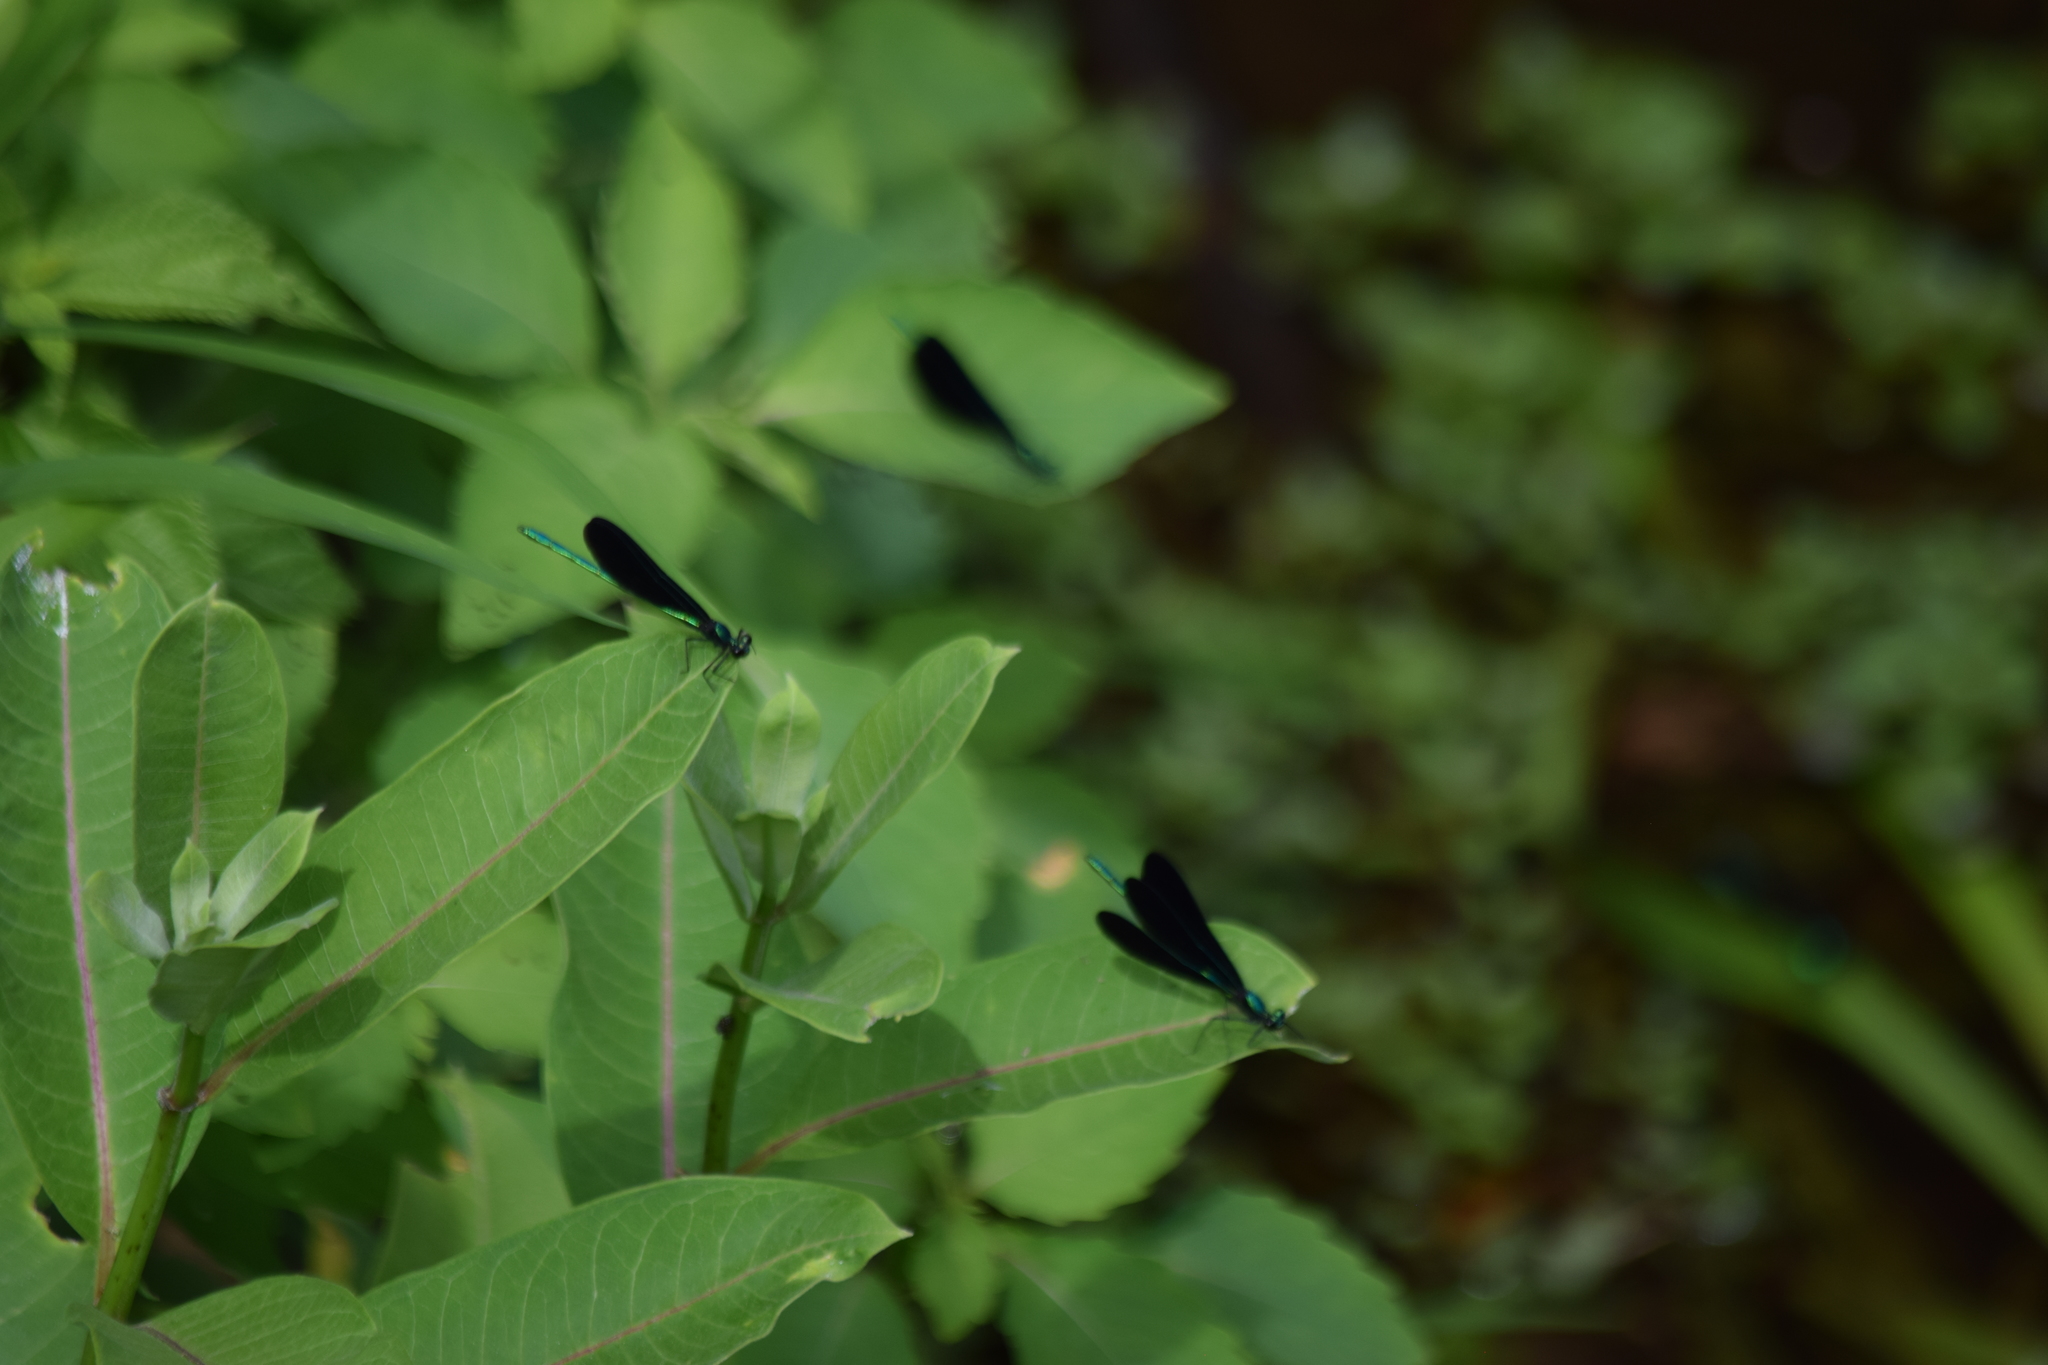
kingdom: Animalia
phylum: Arthropoda
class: Insecta
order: Odonata
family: Calopterygidae
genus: Calopteryx
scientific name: Calopteryx maculata
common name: Ebony jewelwing
